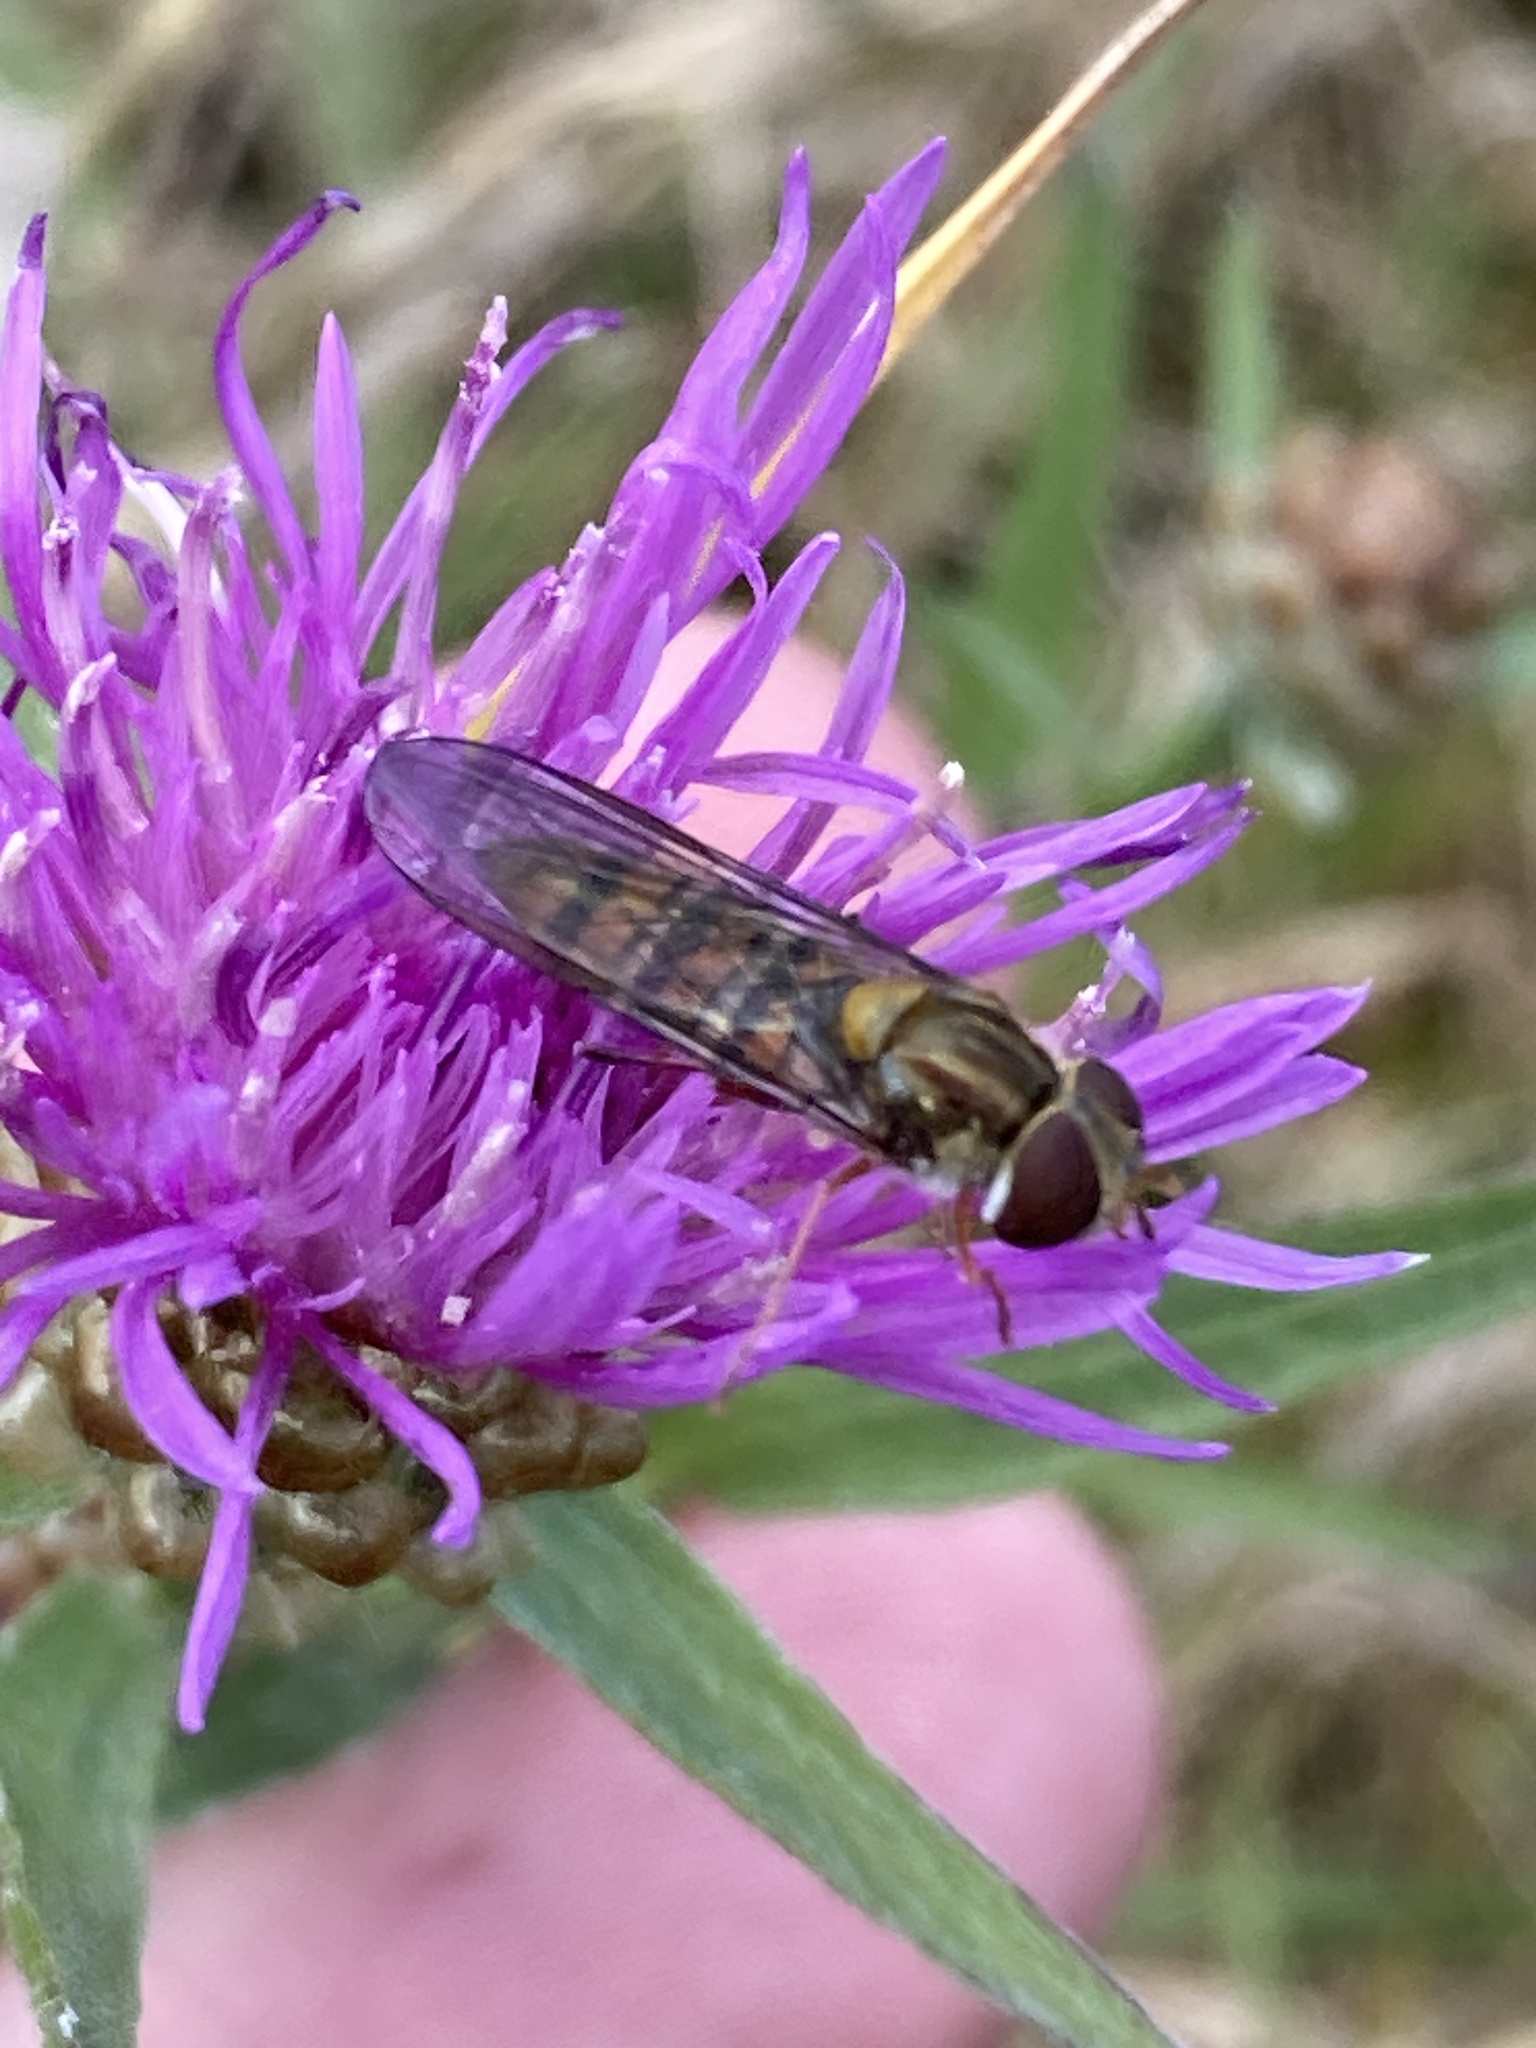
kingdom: Animalia
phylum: Arthropoda
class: Insecta
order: Diptera
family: Syrphidae
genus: Episyrphus
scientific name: Episyrphus balteatus
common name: Marmalade hoverfly
